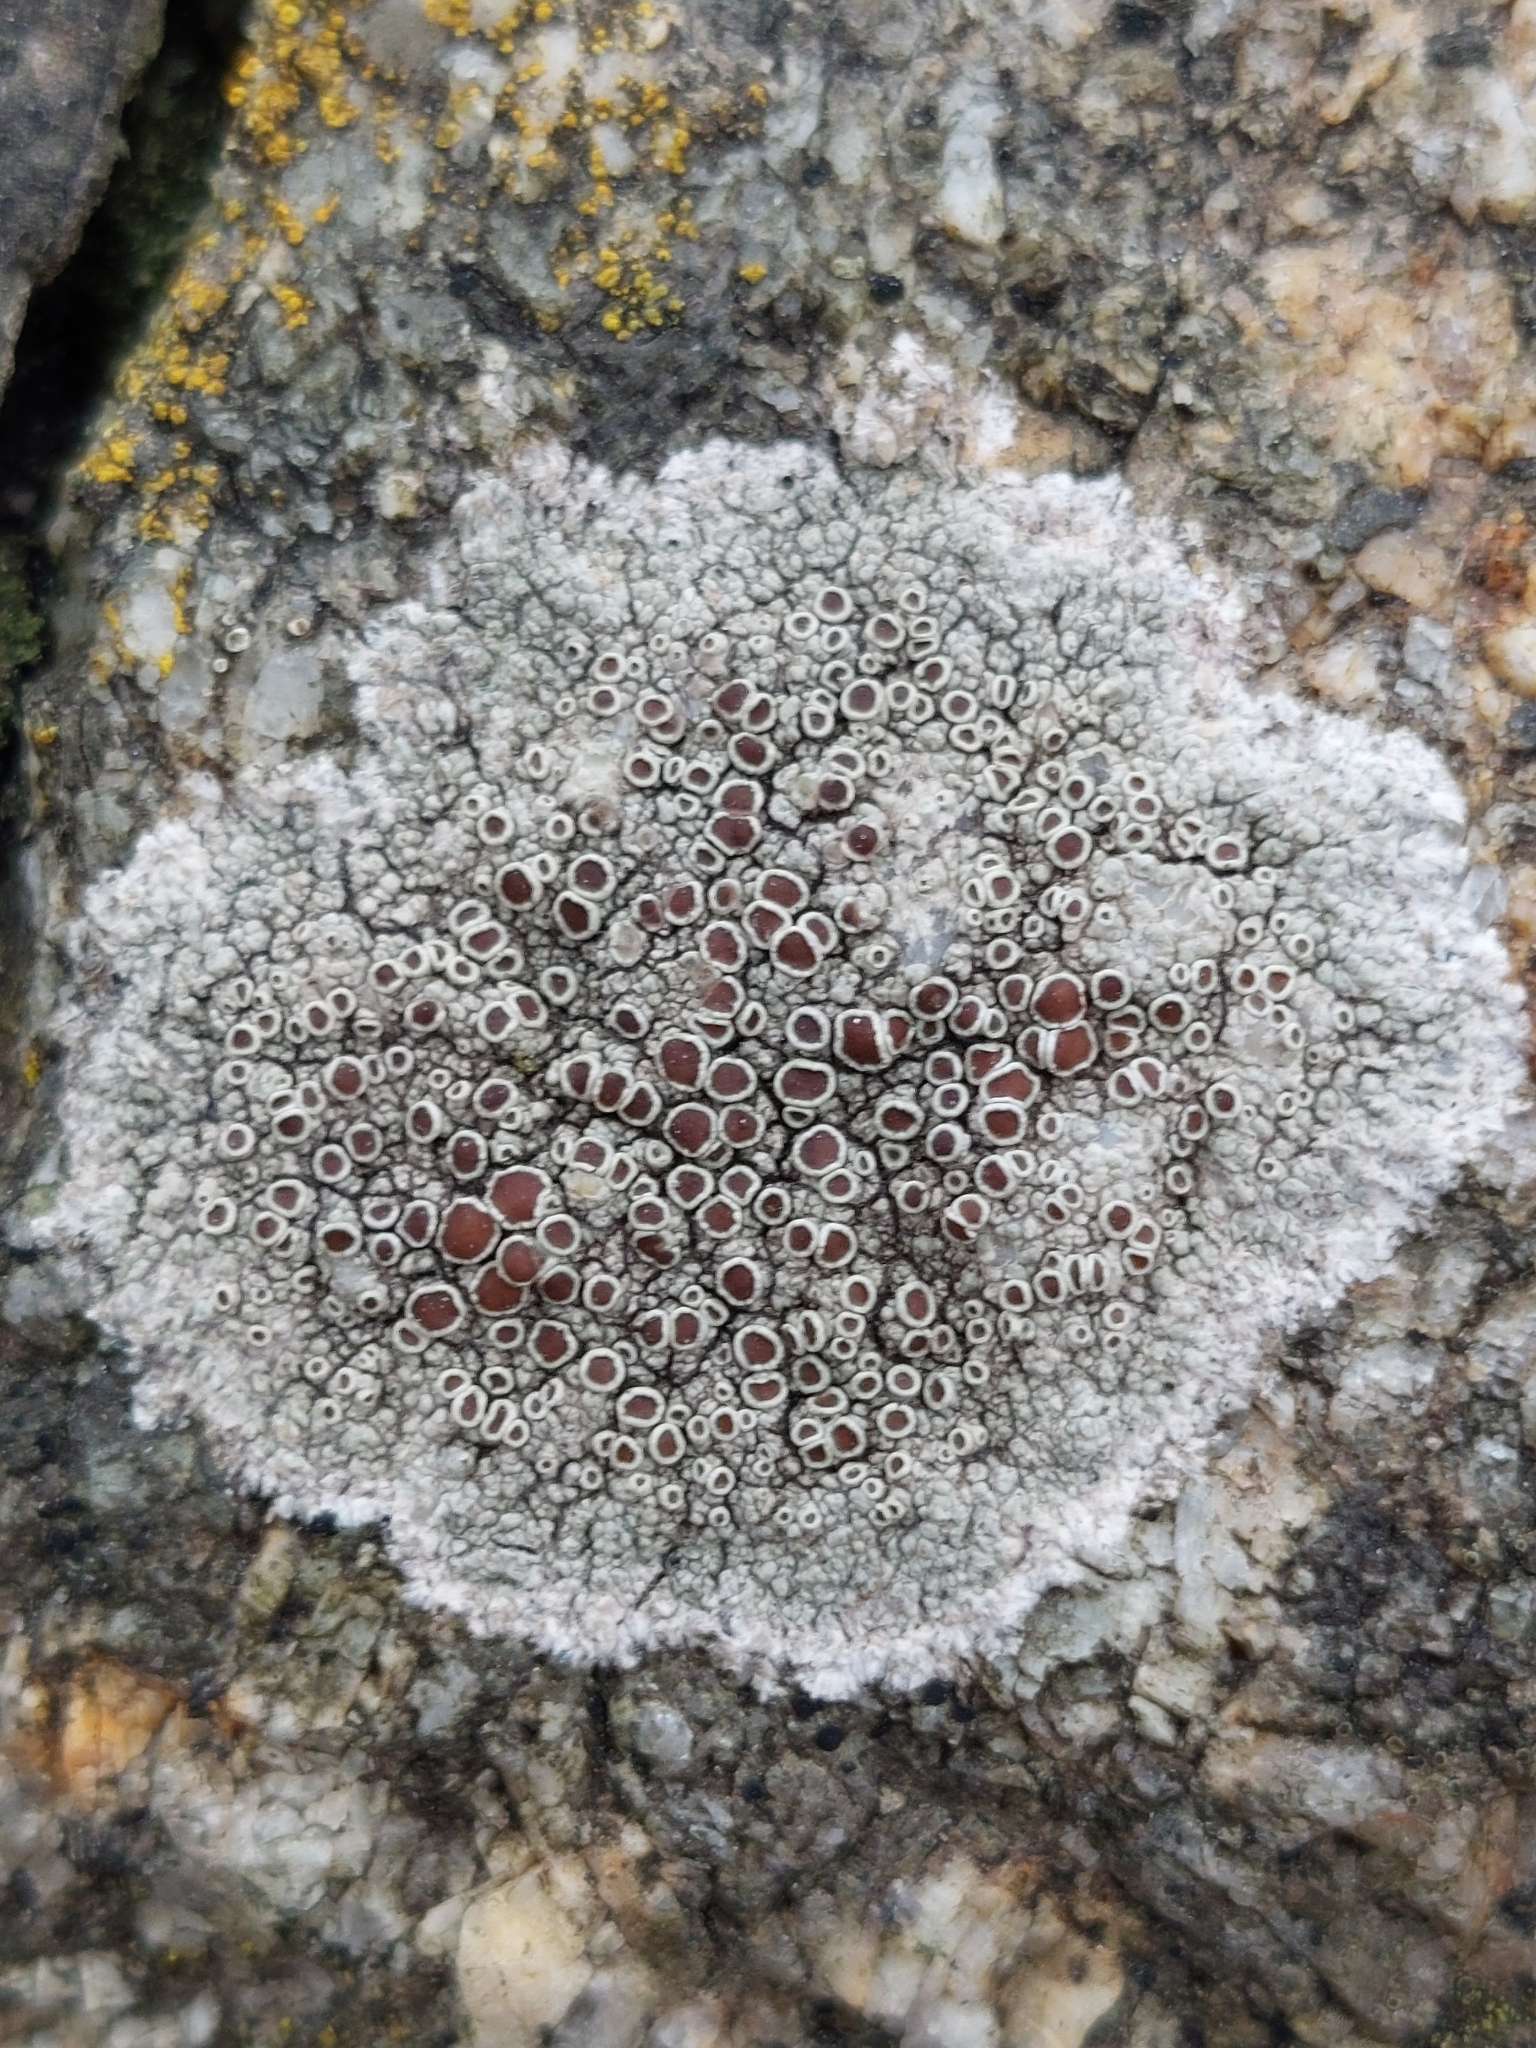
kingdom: Fungi
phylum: Ascomycota
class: Lecanoromycetes
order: Lecanorales
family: Lecanoraceae
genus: Lecanora
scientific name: Lecanora campestris
